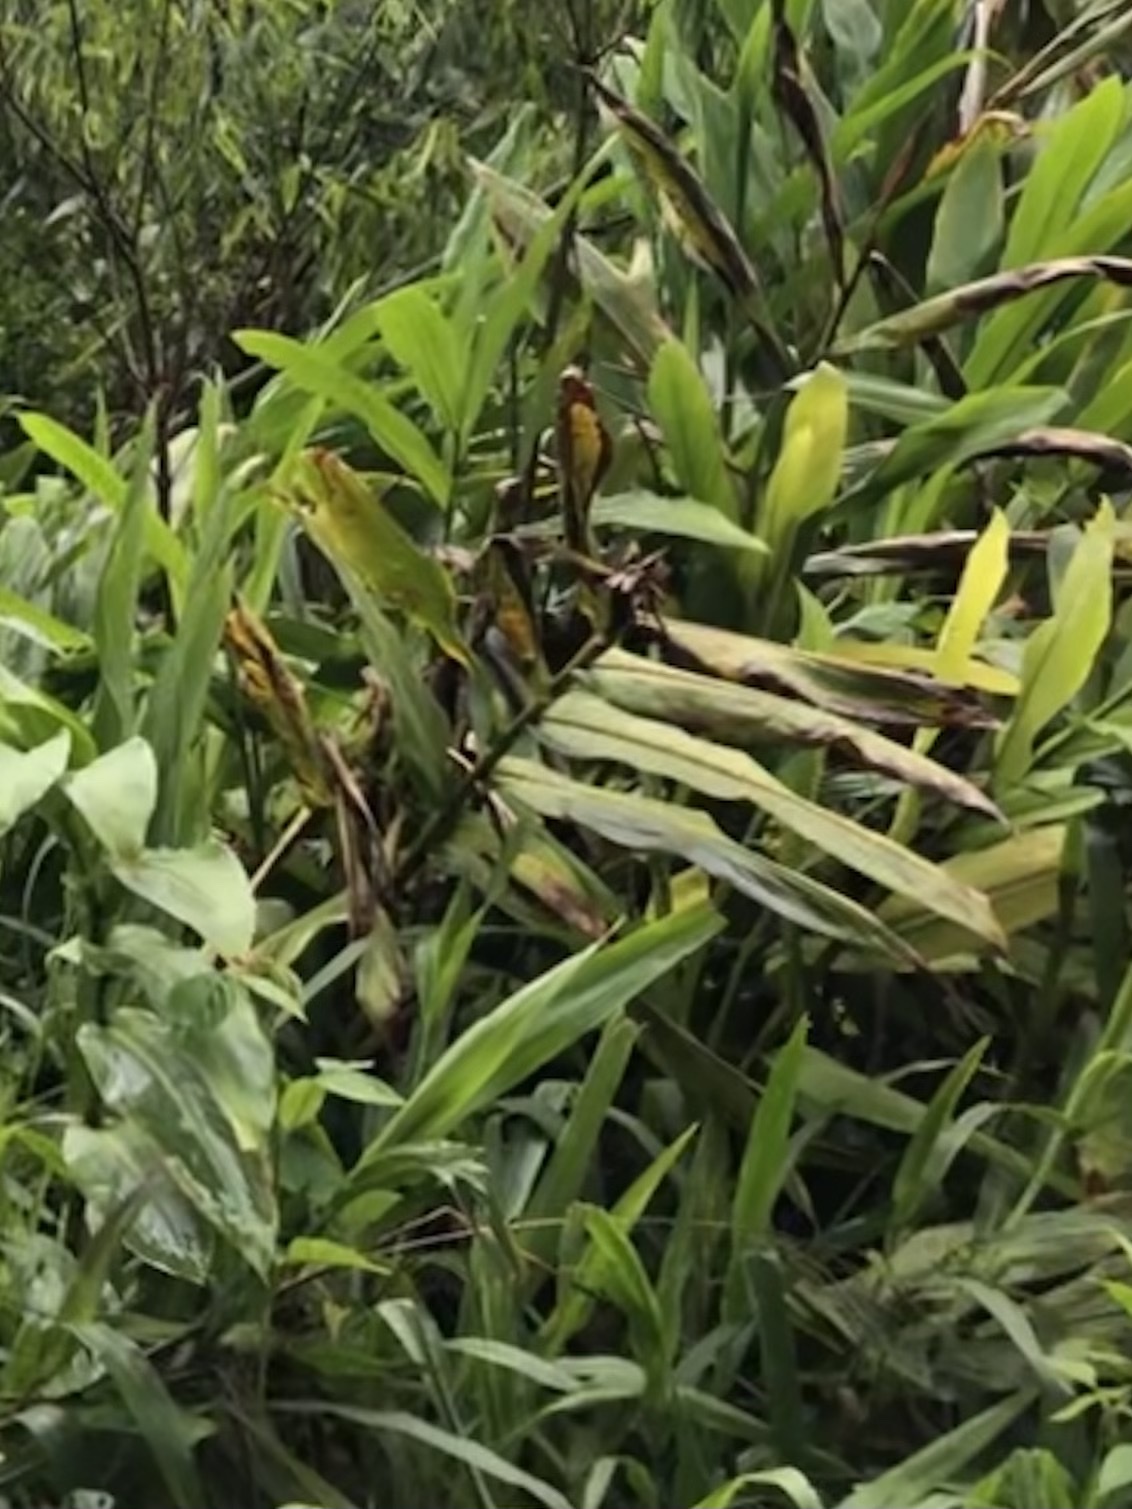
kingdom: Plantae
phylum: Tracheophyta
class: Liliopsida
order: Zingiberales
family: Zingiberaceae
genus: Hedychium
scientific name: Hedychium coronarium
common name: White garland-lily
